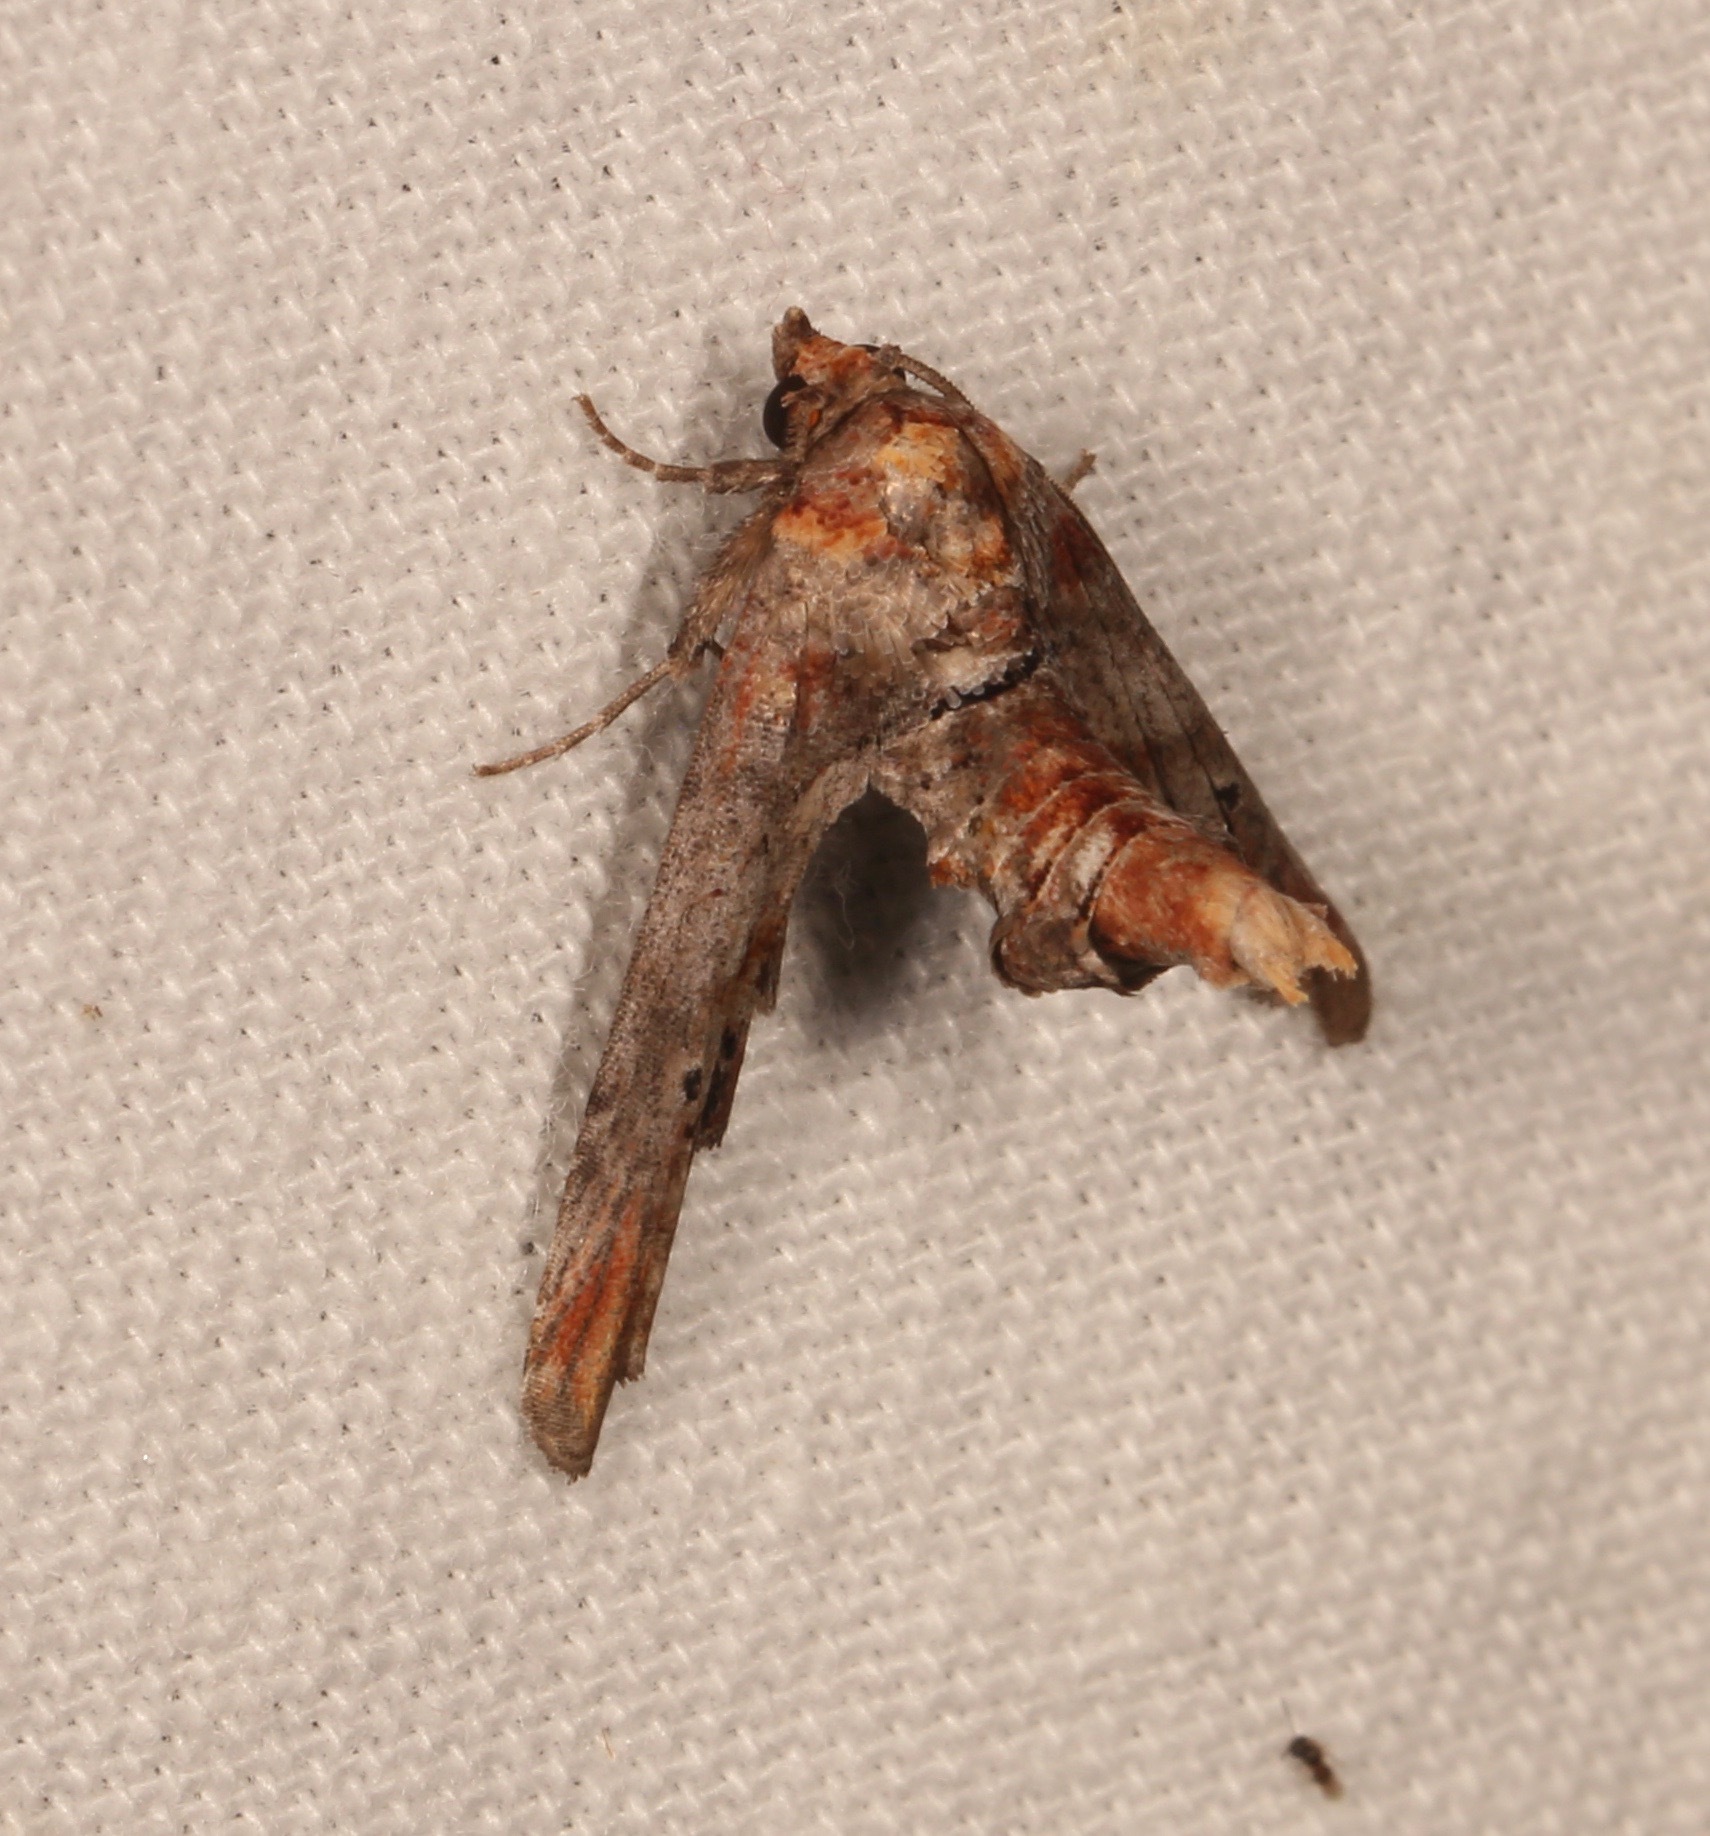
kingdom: Animalia
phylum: Arthropoda
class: Insecta
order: Lepidoptera
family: Euteliidae
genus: Marathyssa
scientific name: Marathyssa inficita
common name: Dark marathyssa moth
